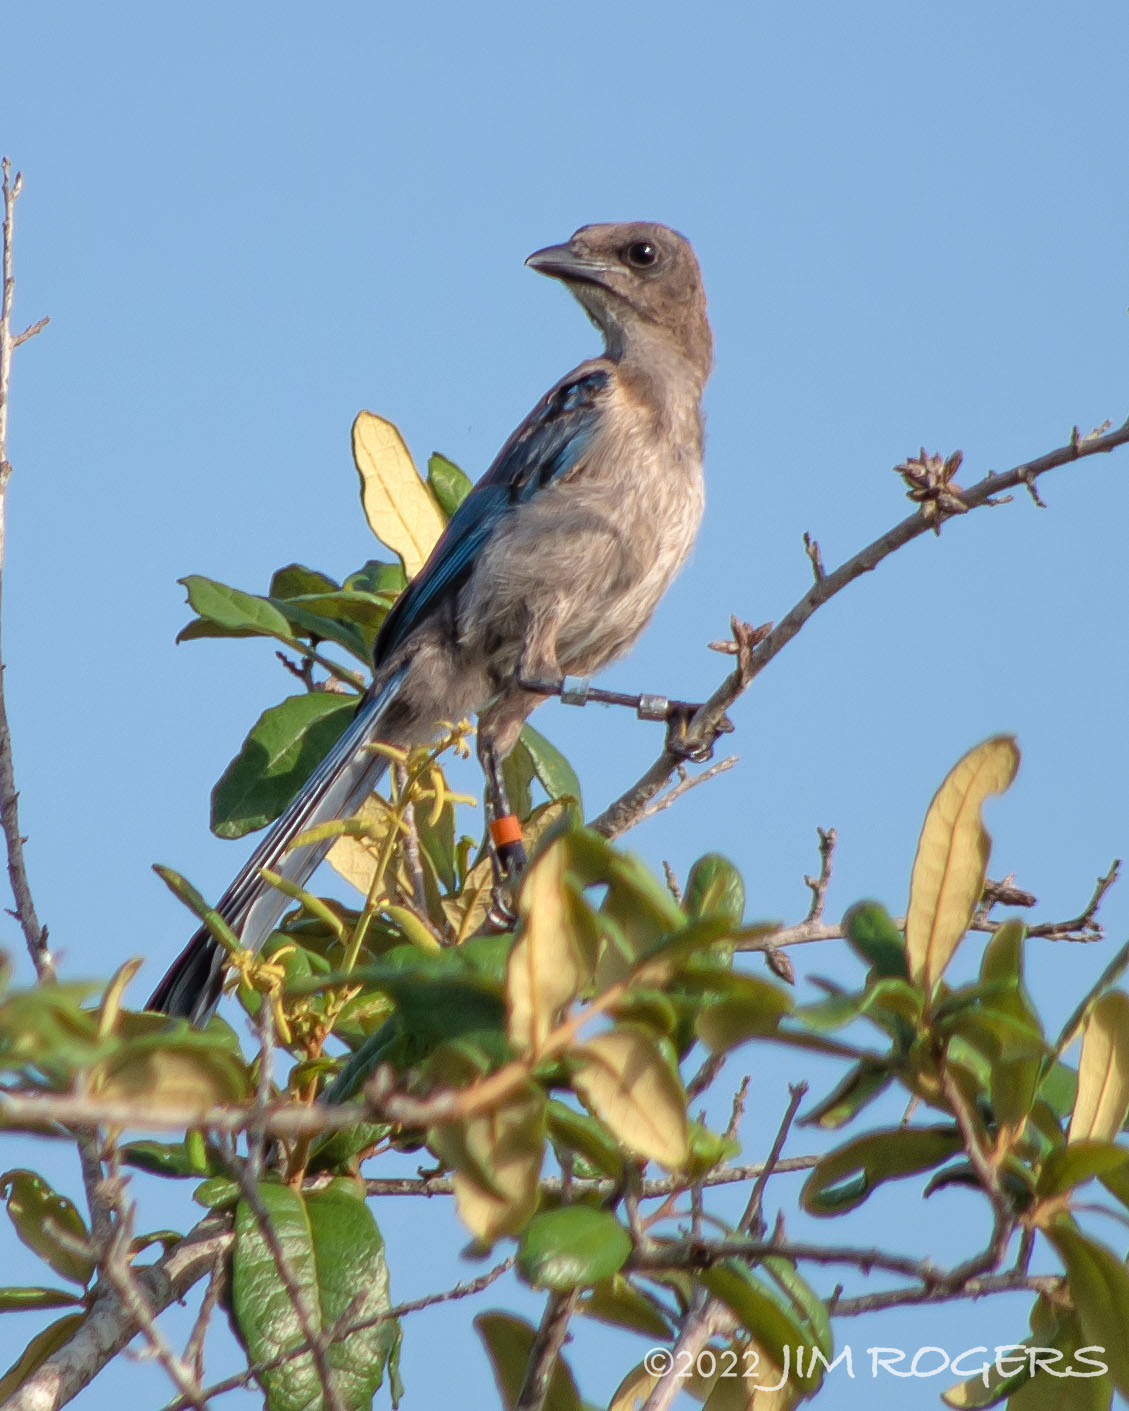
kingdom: Animalia
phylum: Chordata
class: Aves
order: Passeriformes
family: Corvidae
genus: Aphelocoma
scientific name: Aphelocoma coerulescens
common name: Florida scrub jay
